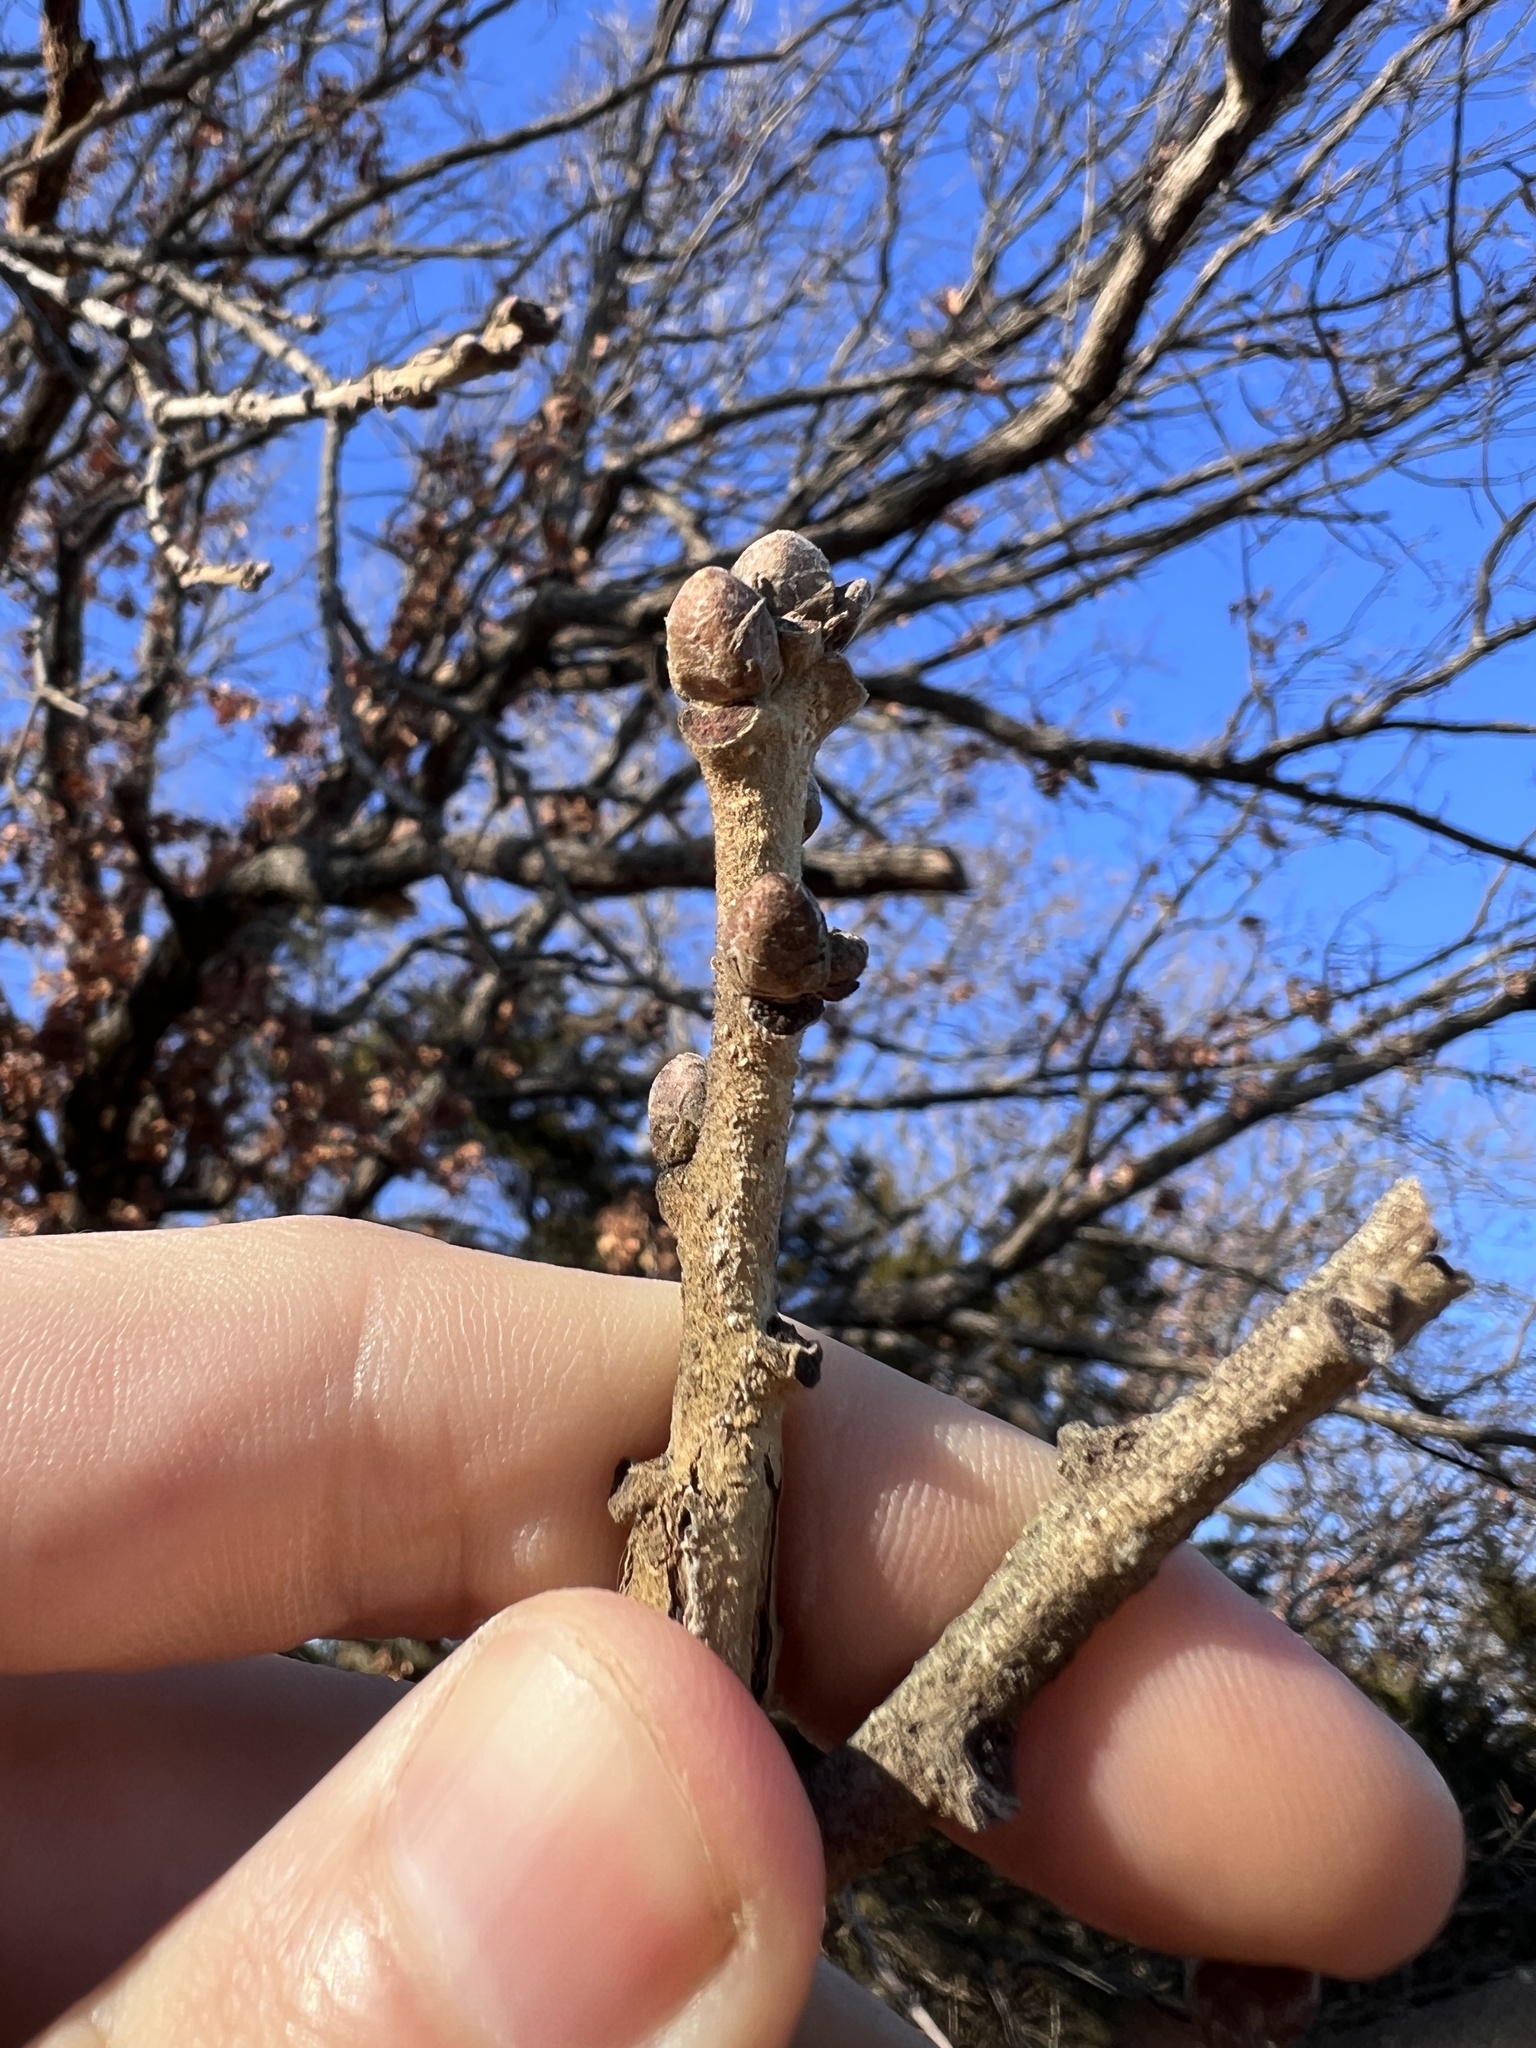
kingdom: Plantae
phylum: Tracheophyta
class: Magnoliopsida
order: Fagales
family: Fagaceae
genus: Quercus
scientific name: Quercus stellata
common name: Post oak
